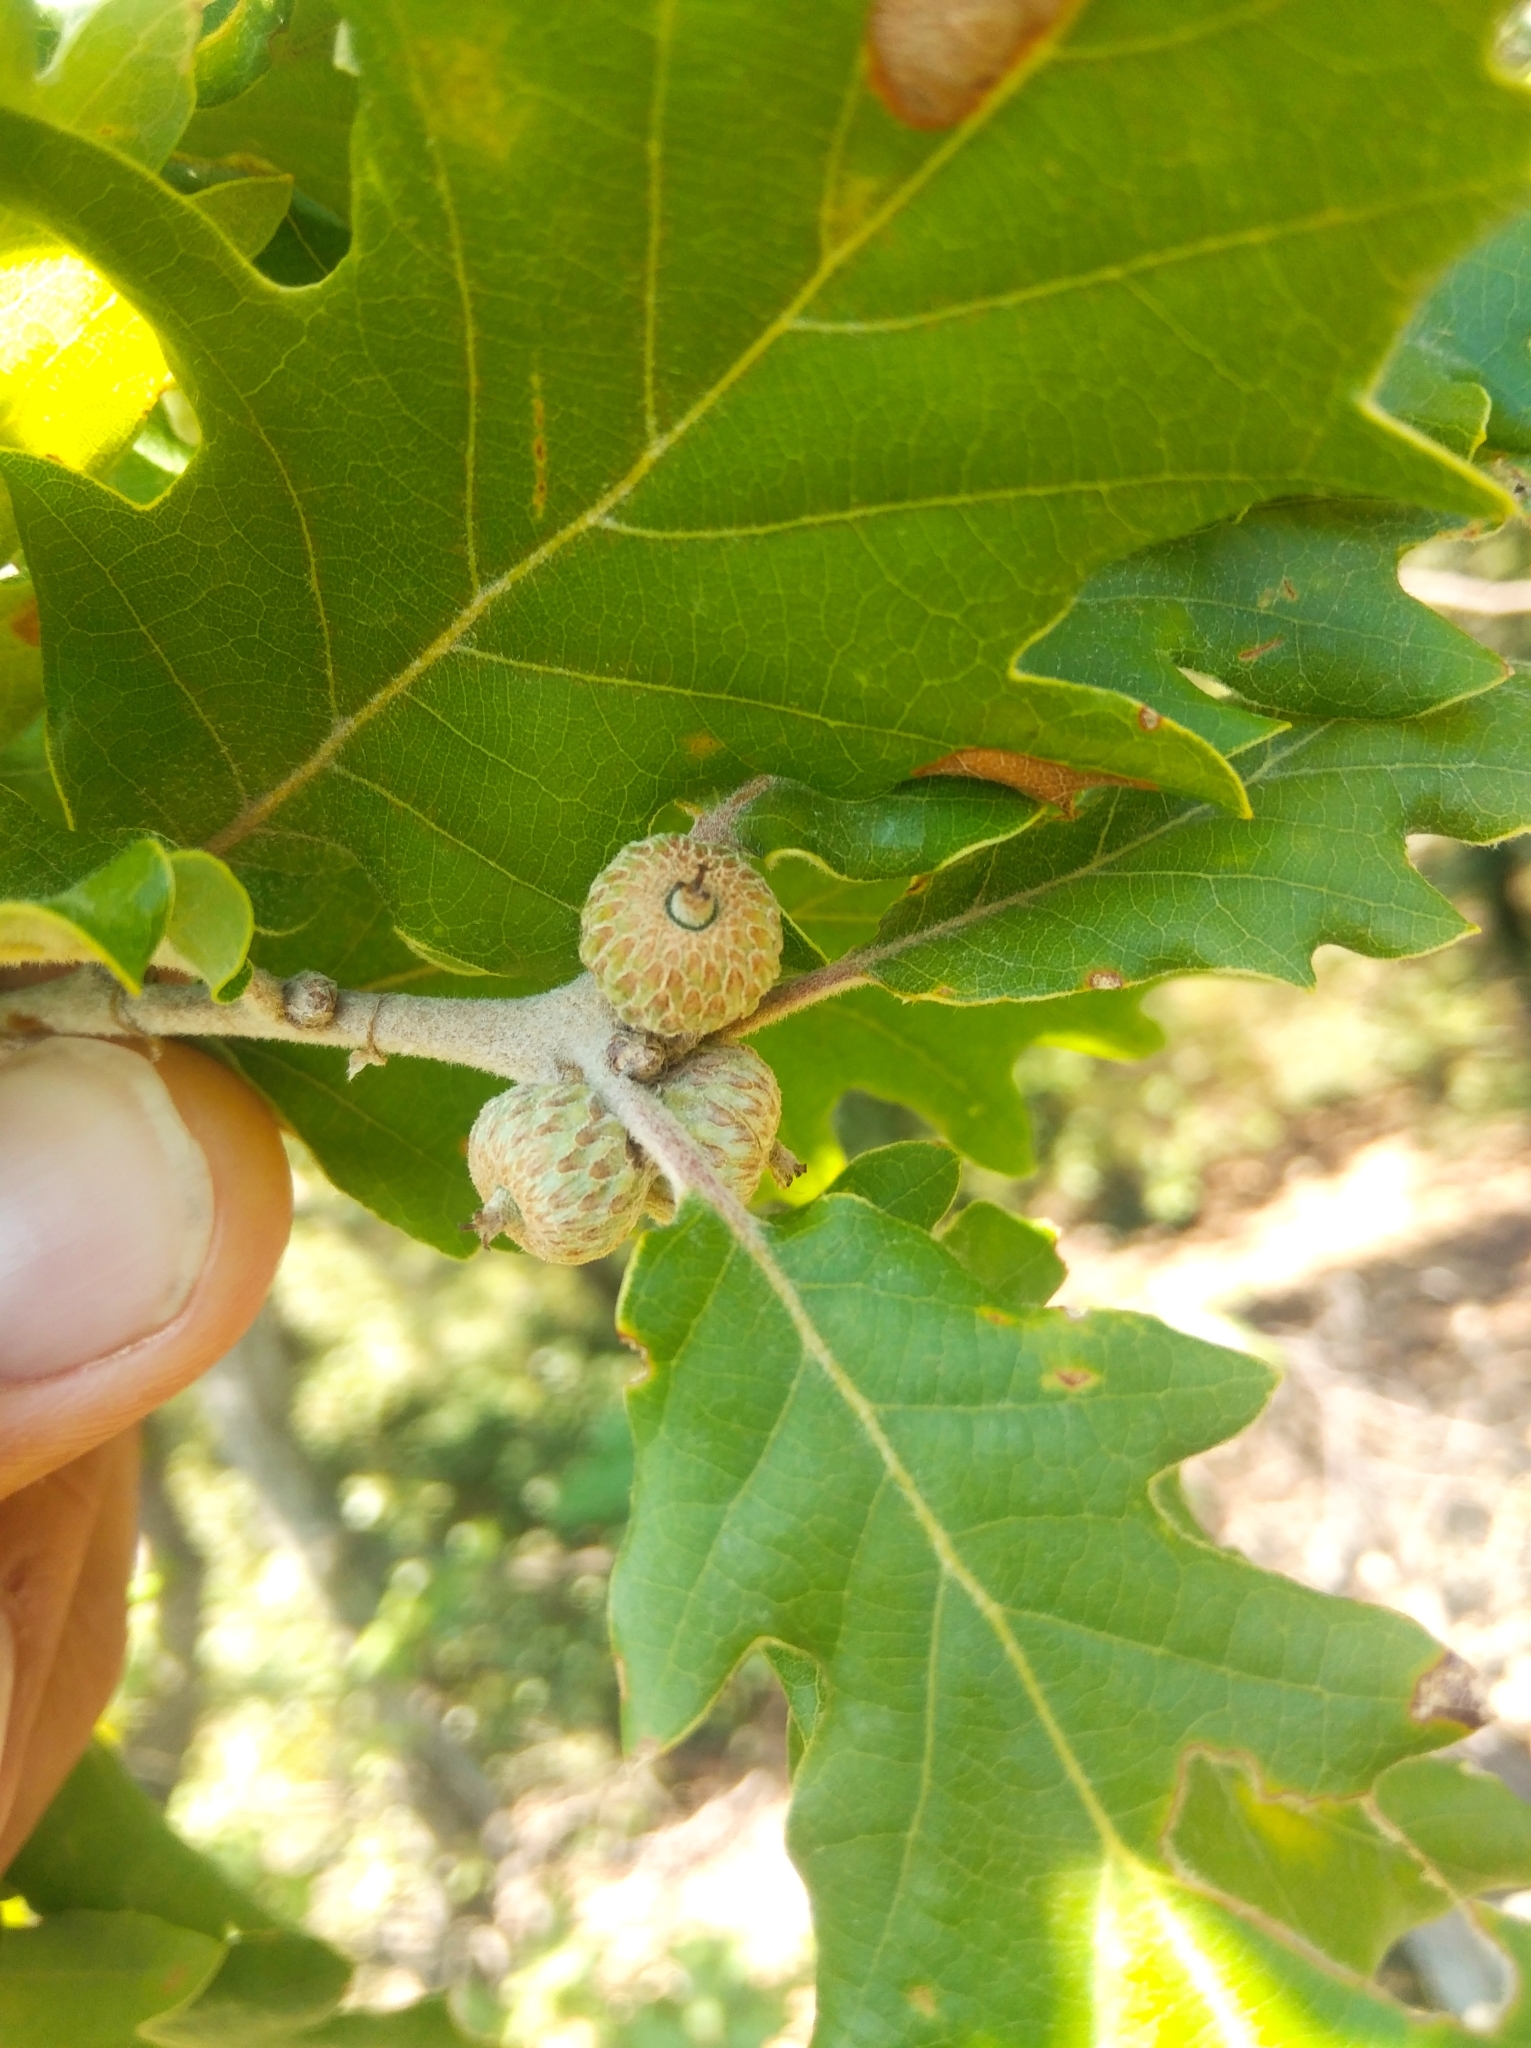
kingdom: Plantae
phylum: Tracheophyta
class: Magnoliopsida
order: Fagales
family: Fagaceae
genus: Quercus
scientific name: Quercus pubescens
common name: Downy oak
